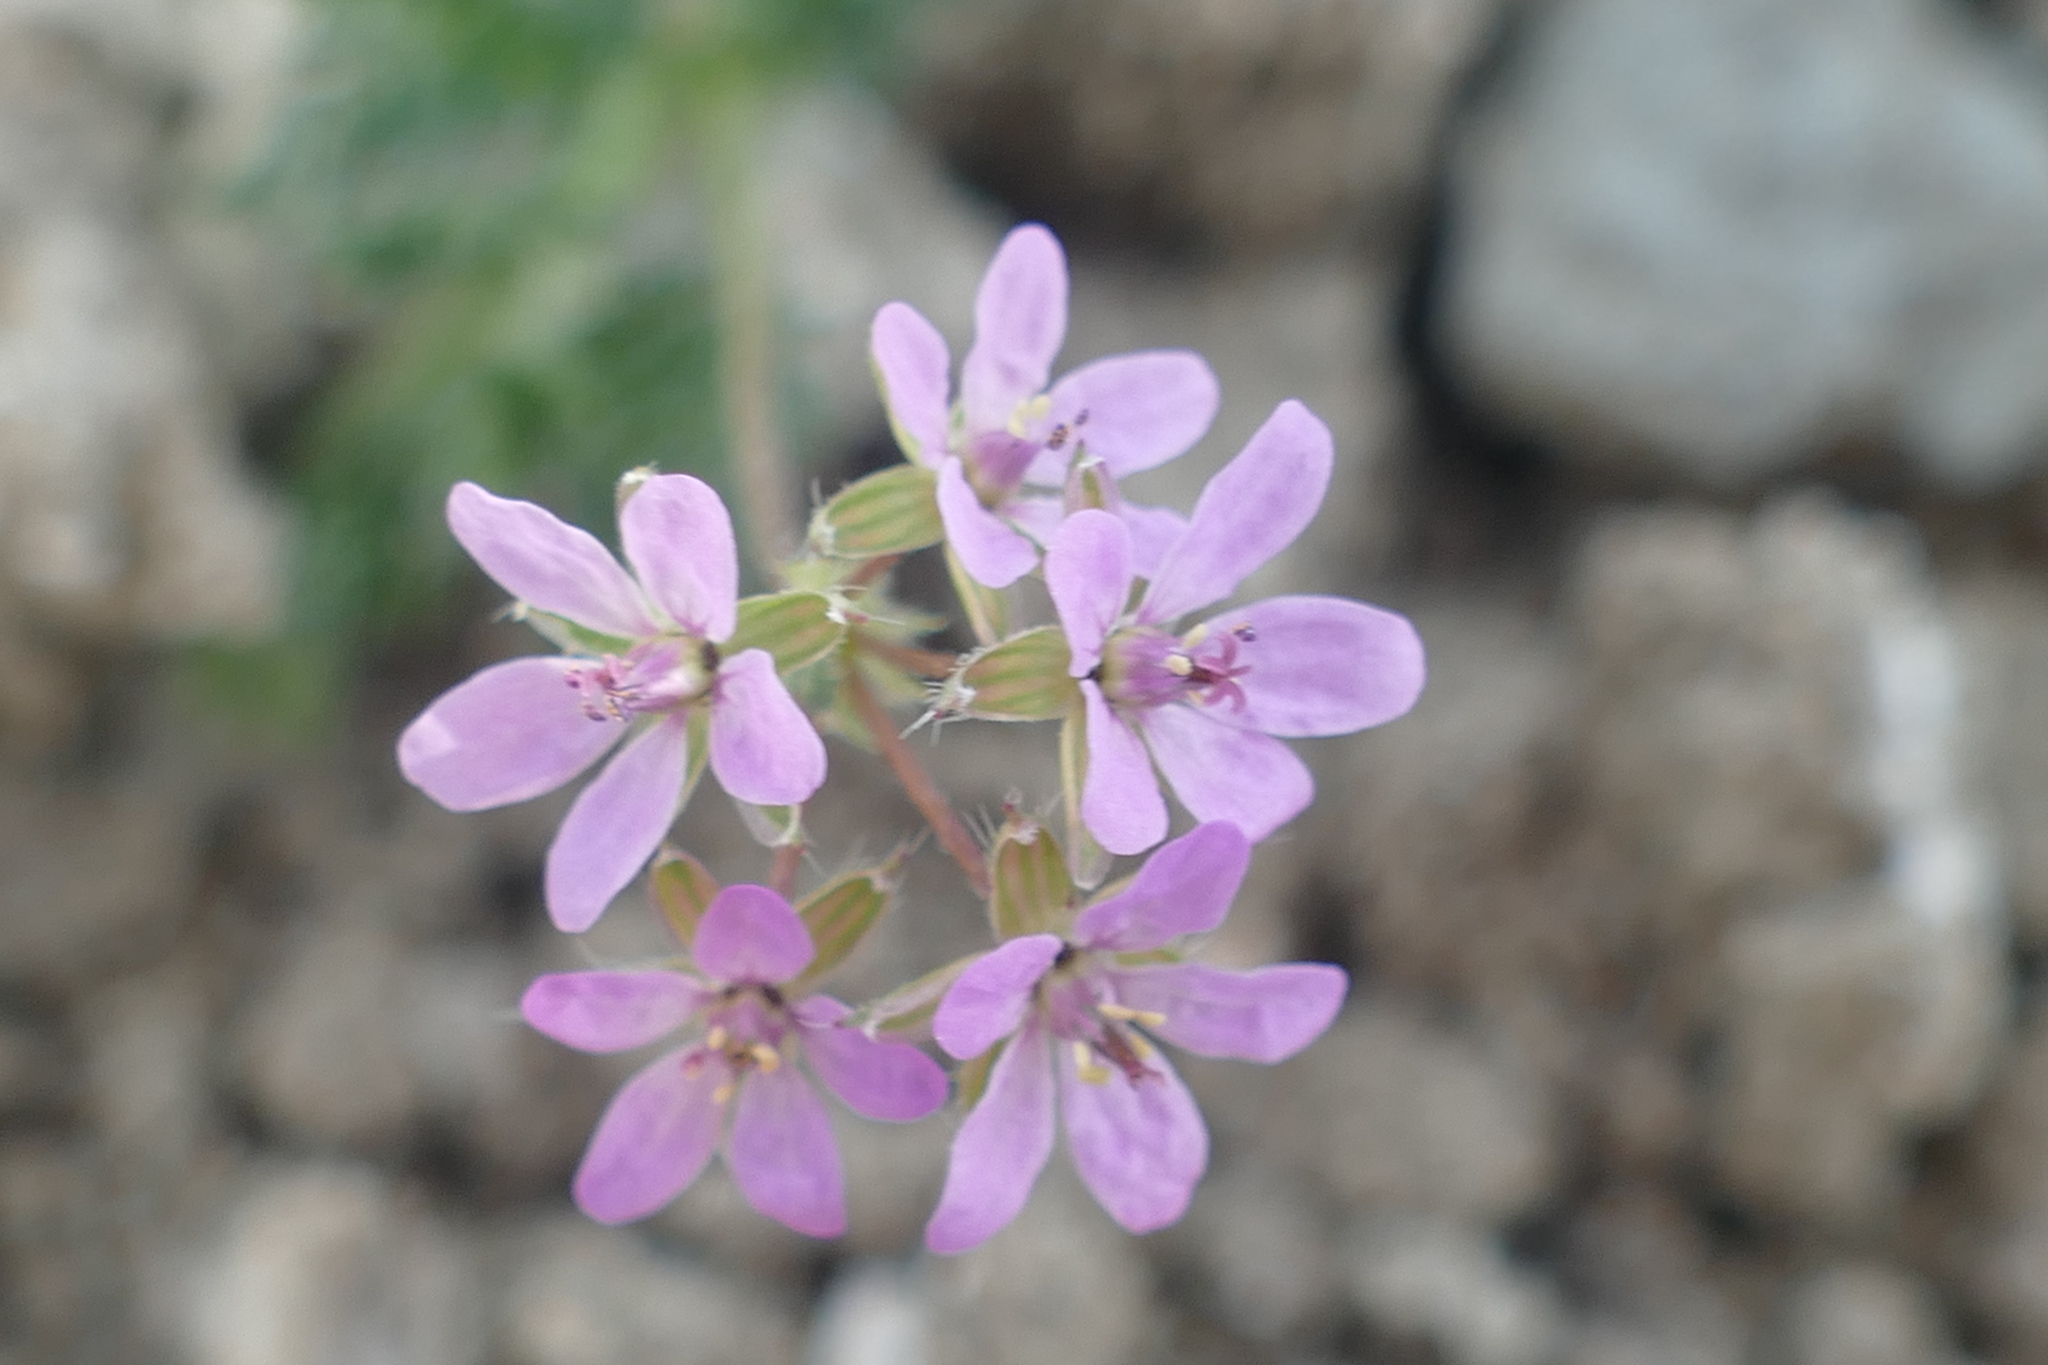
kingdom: Plantae
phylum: Tracheophyta
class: Magnoliopsida
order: Geraniales
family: Geraniaceae
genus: Erodium
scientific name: Erodium cicutarium
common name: Common stork's-bill
